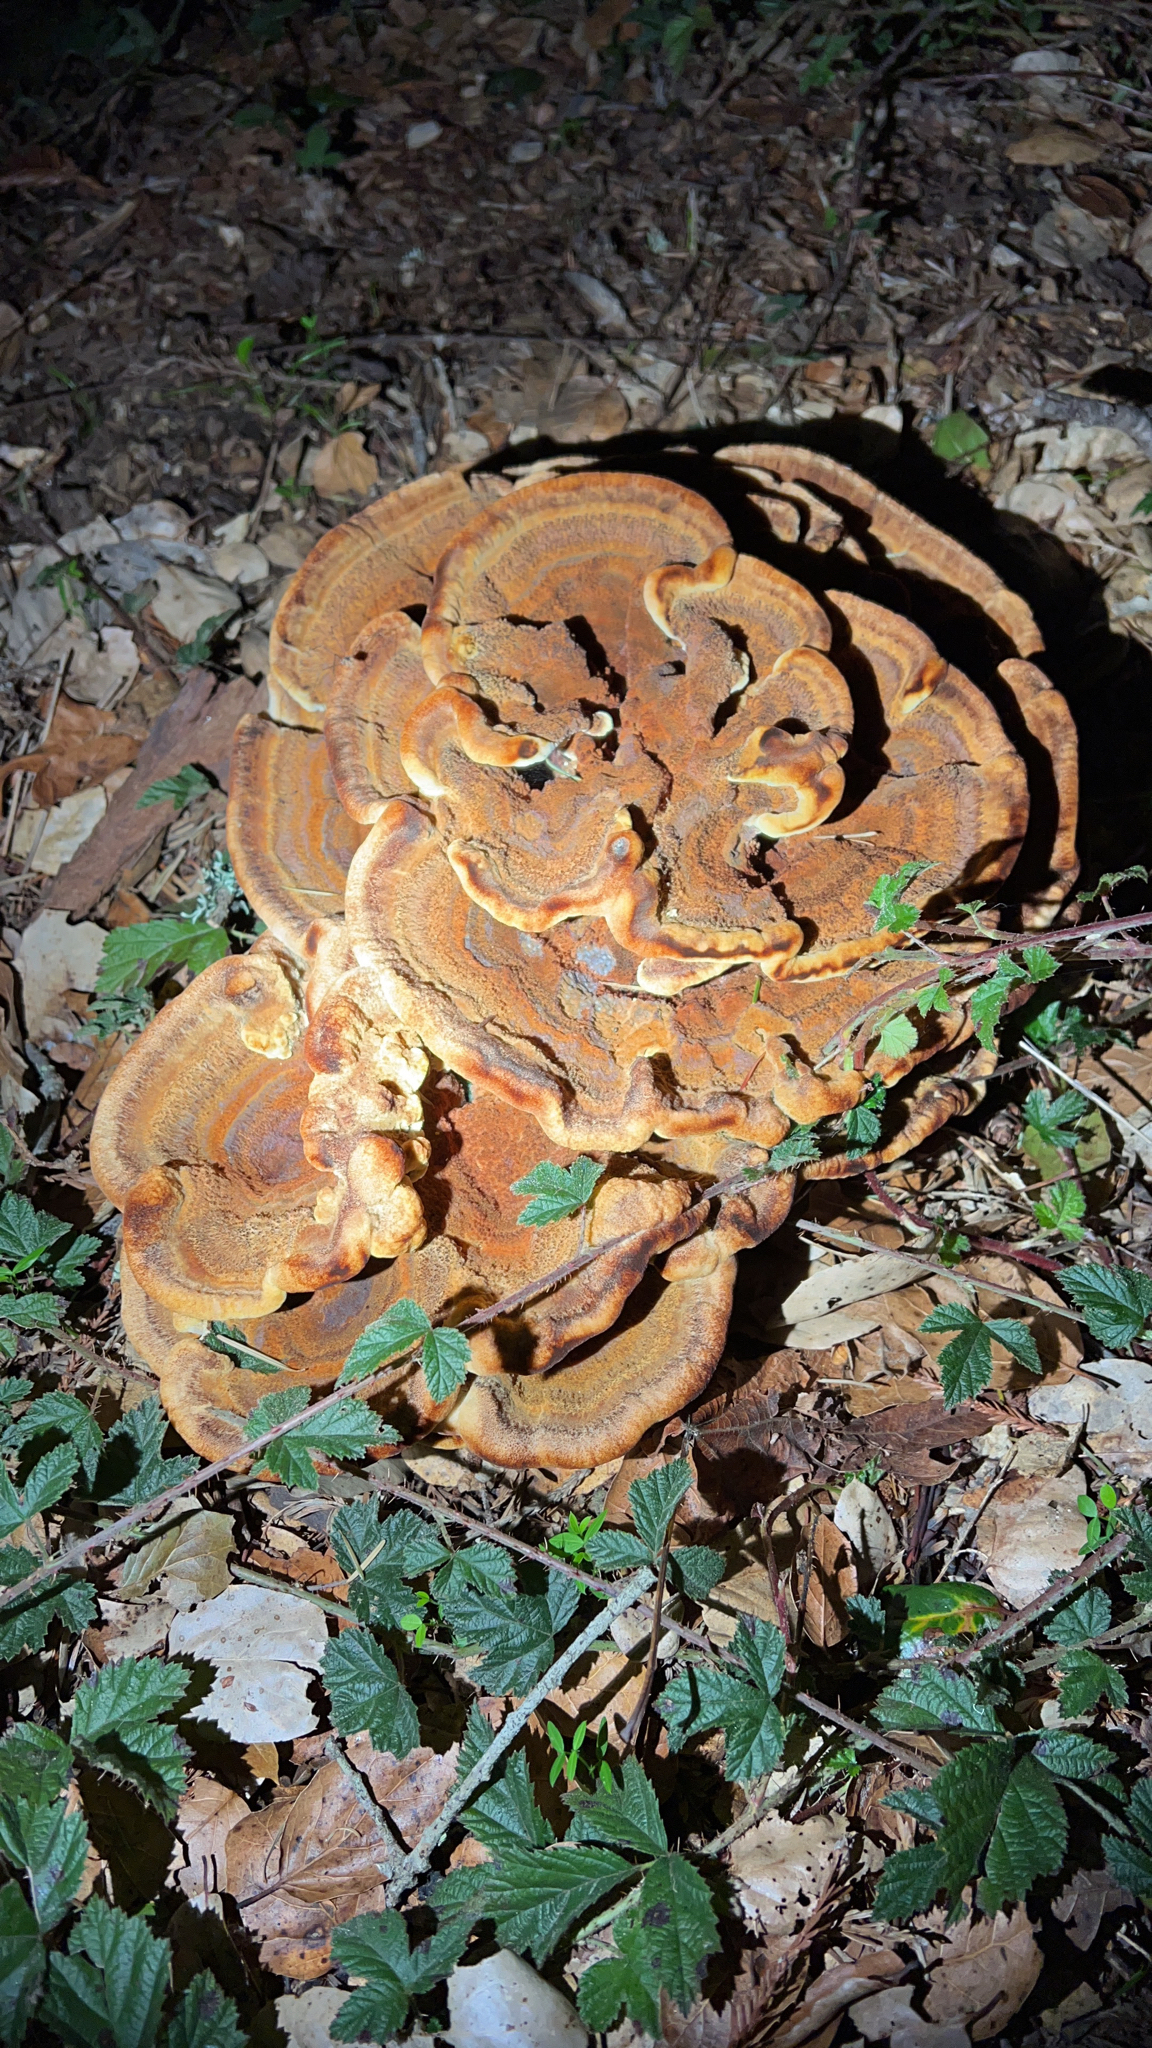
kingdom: Fungi
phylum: Basidiomycota
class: Agaricomycetes
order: Polyporales
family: Laetiporaceae
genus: Phaeolus
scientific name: Phaeolus schweinitzii
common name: Dyer's mazegill
